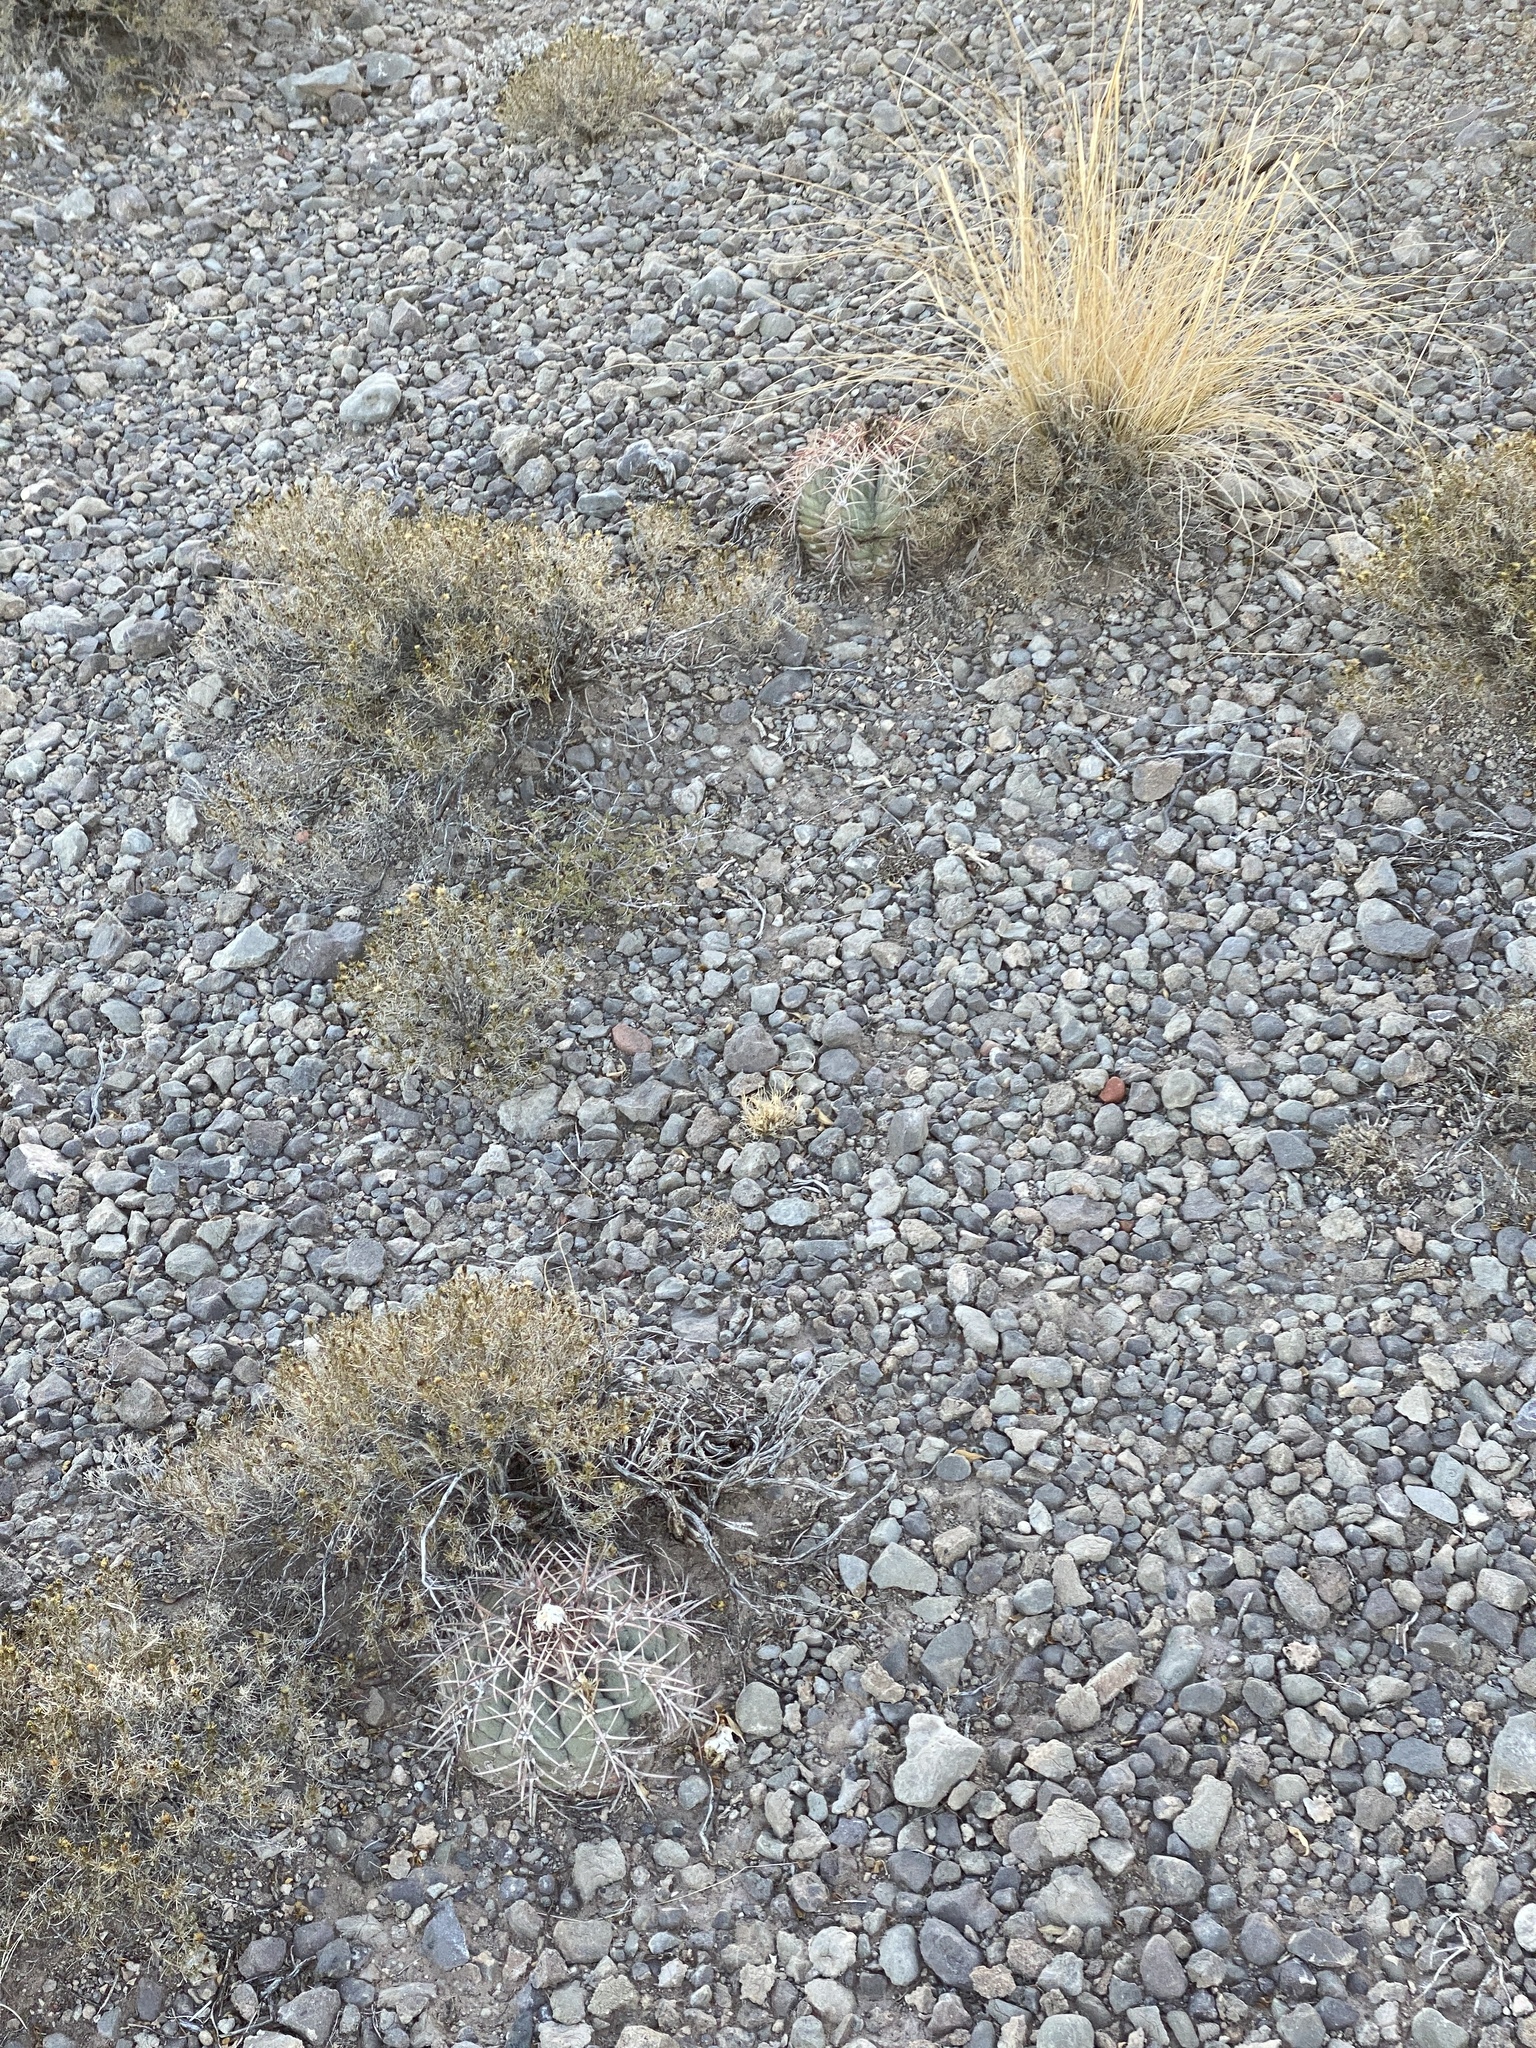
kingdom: Plantae
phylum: Tracheophyta
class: Magnoliopsida
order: Caryophyllales
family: Cactaceae
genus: Echinocactus
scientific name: Echinocactus horizonthalonius
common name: Devilshead
